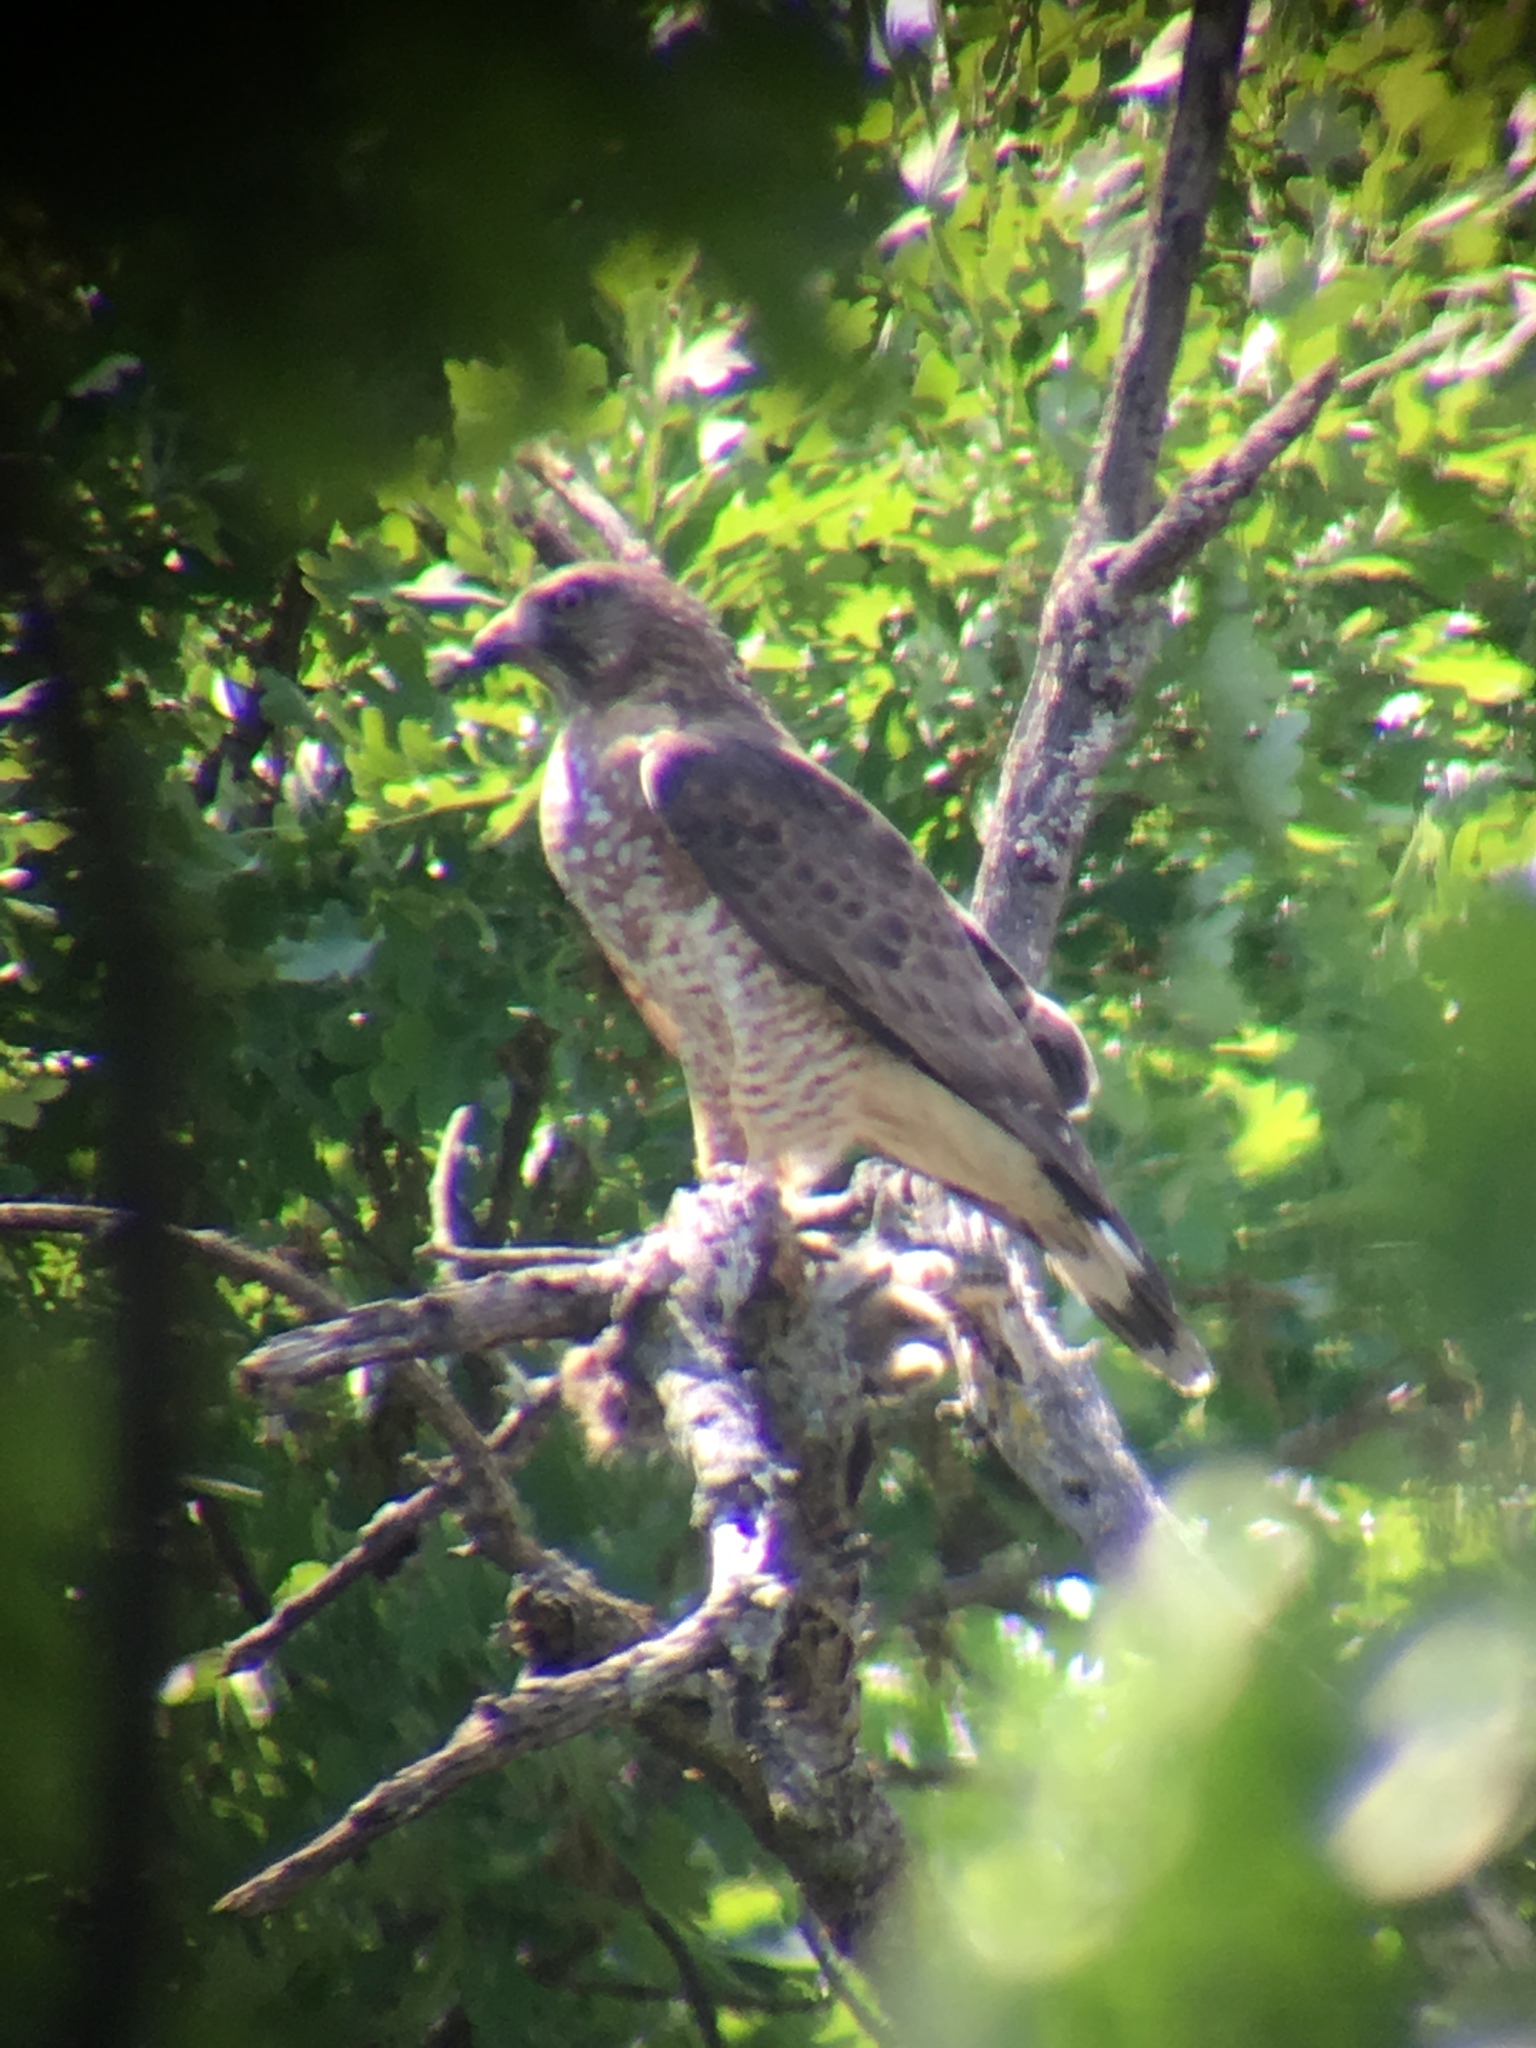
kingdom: Animalia
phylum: Chordata
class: Aves
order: Accipitriformes
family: Accipitridae
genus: Buteo
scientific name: Buteo platypterus
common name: Broad-winged hawk
